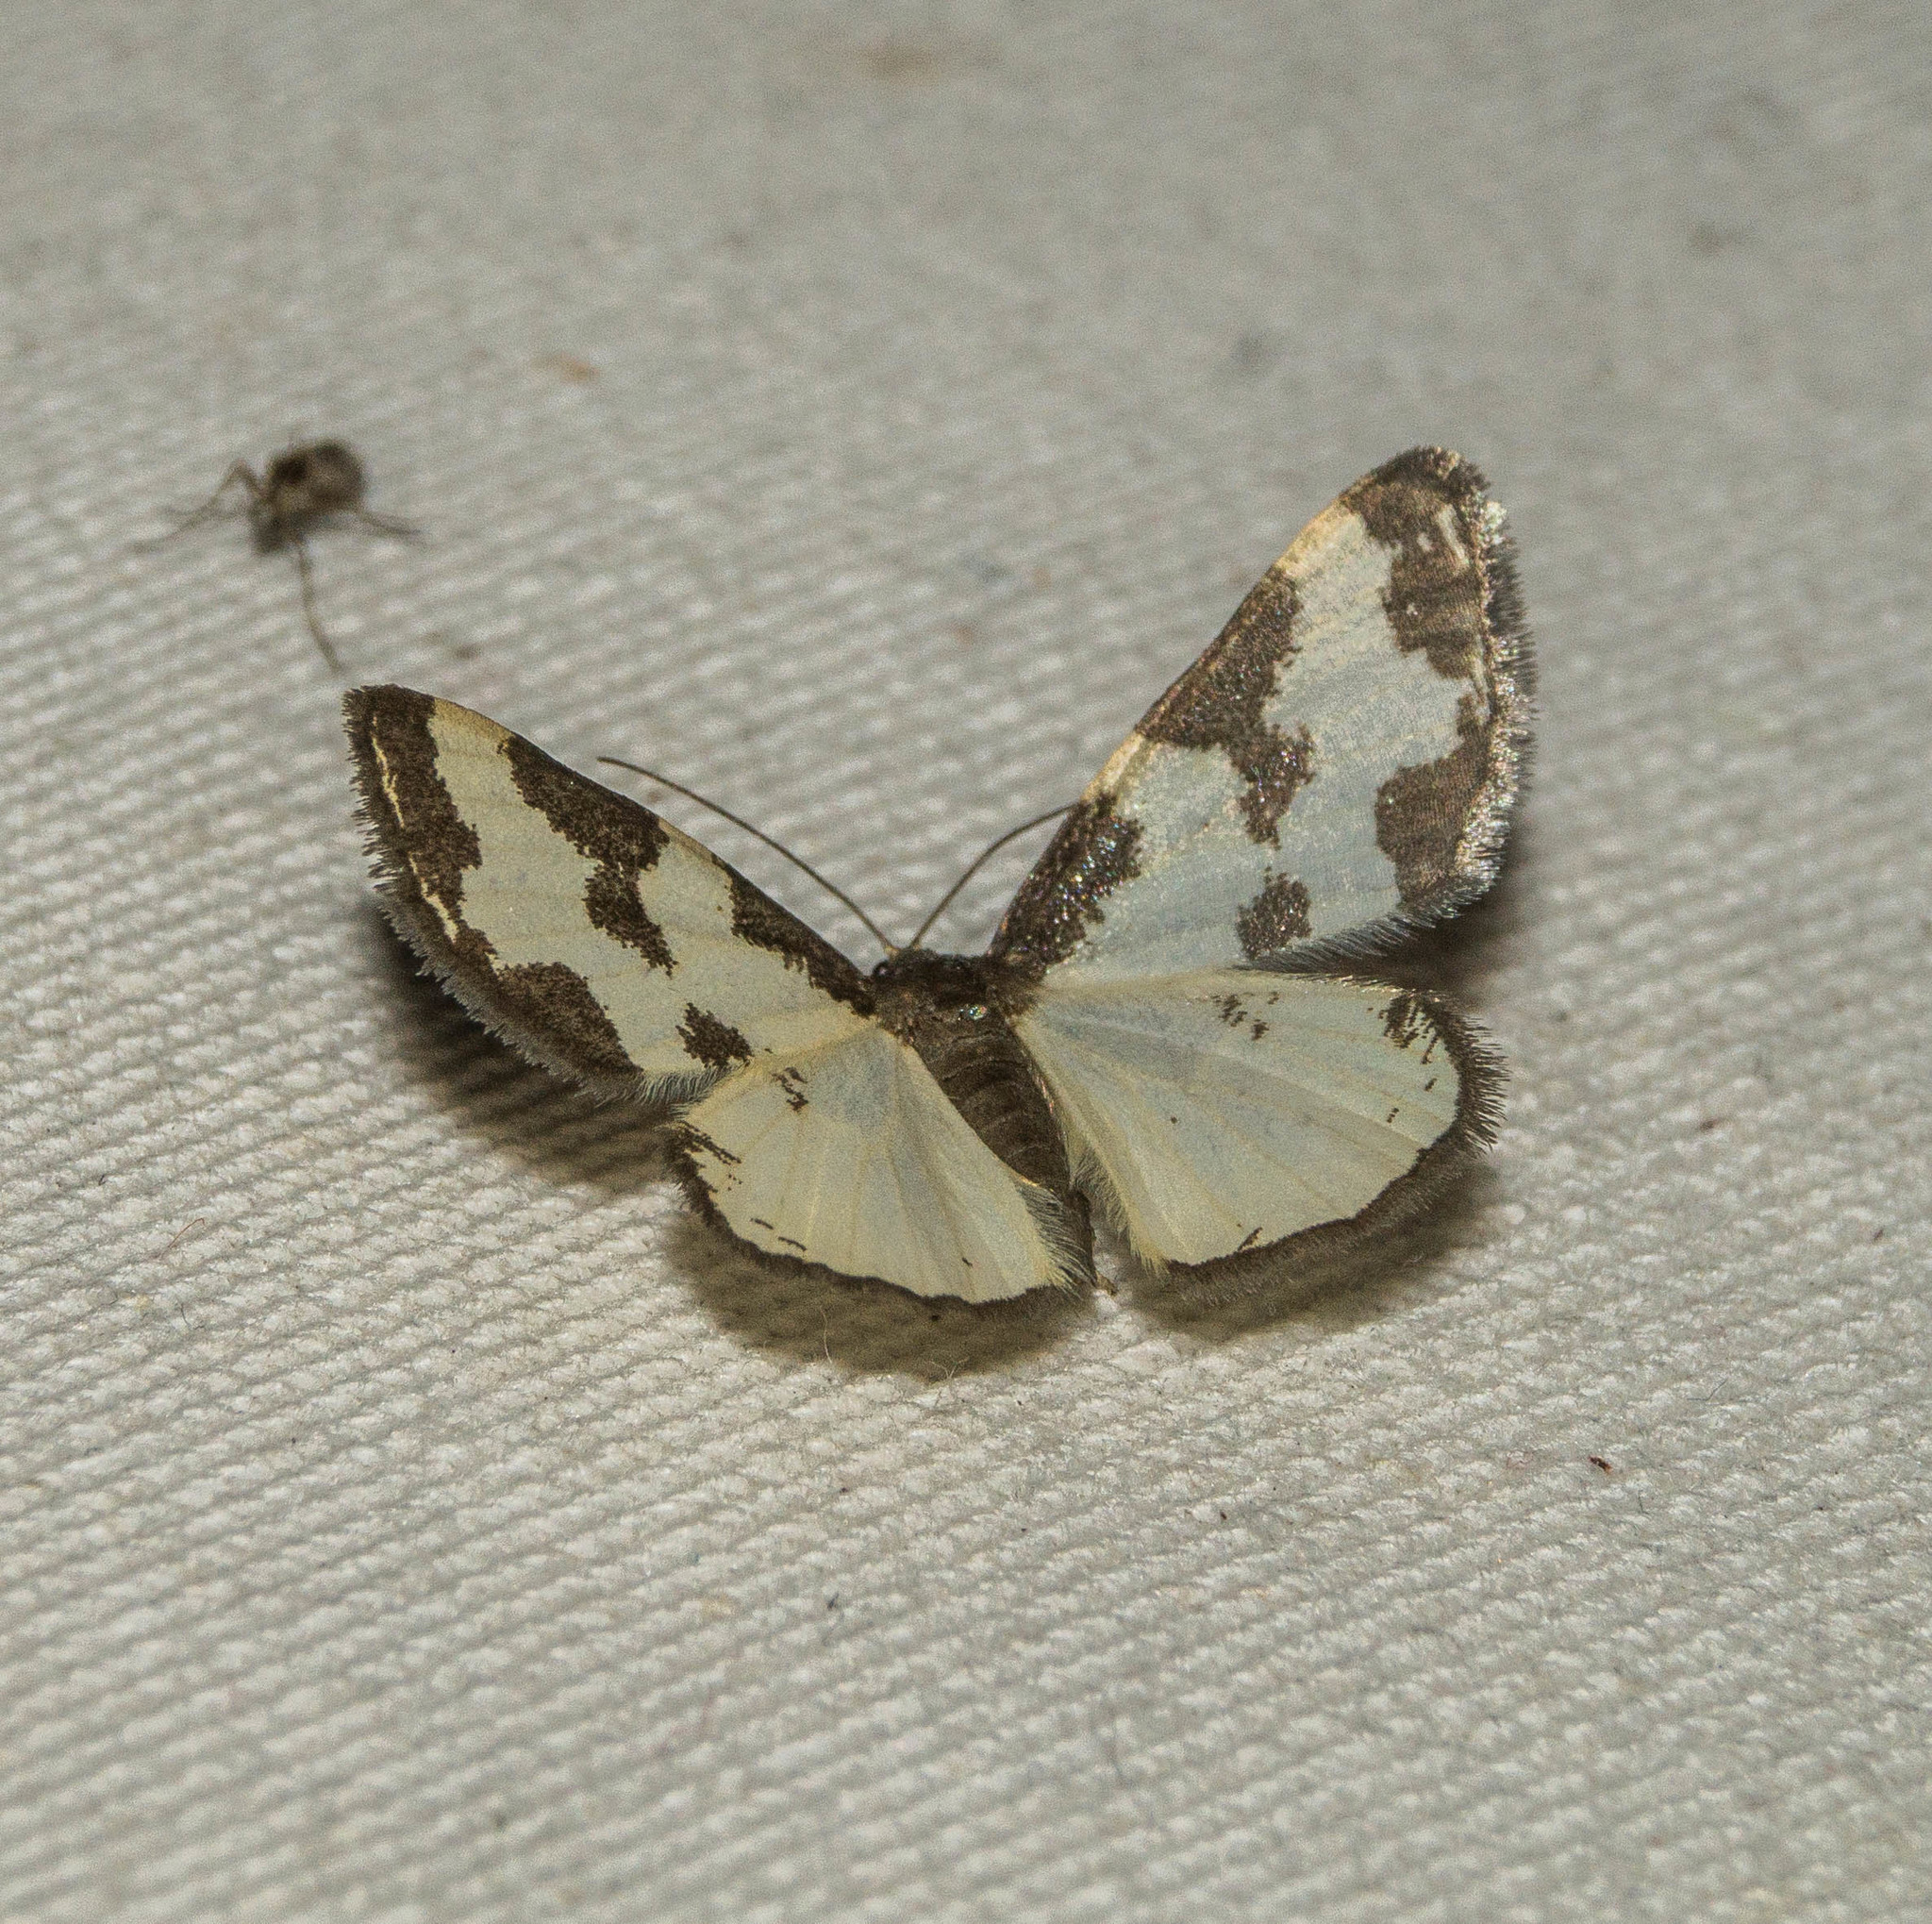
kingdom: Animalia
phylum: Arthropoda
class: Insecta
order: Lepidoptera
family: Geometridae
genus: Lomaspilis
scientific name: Lomaspilis marginata
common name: Clouded border
